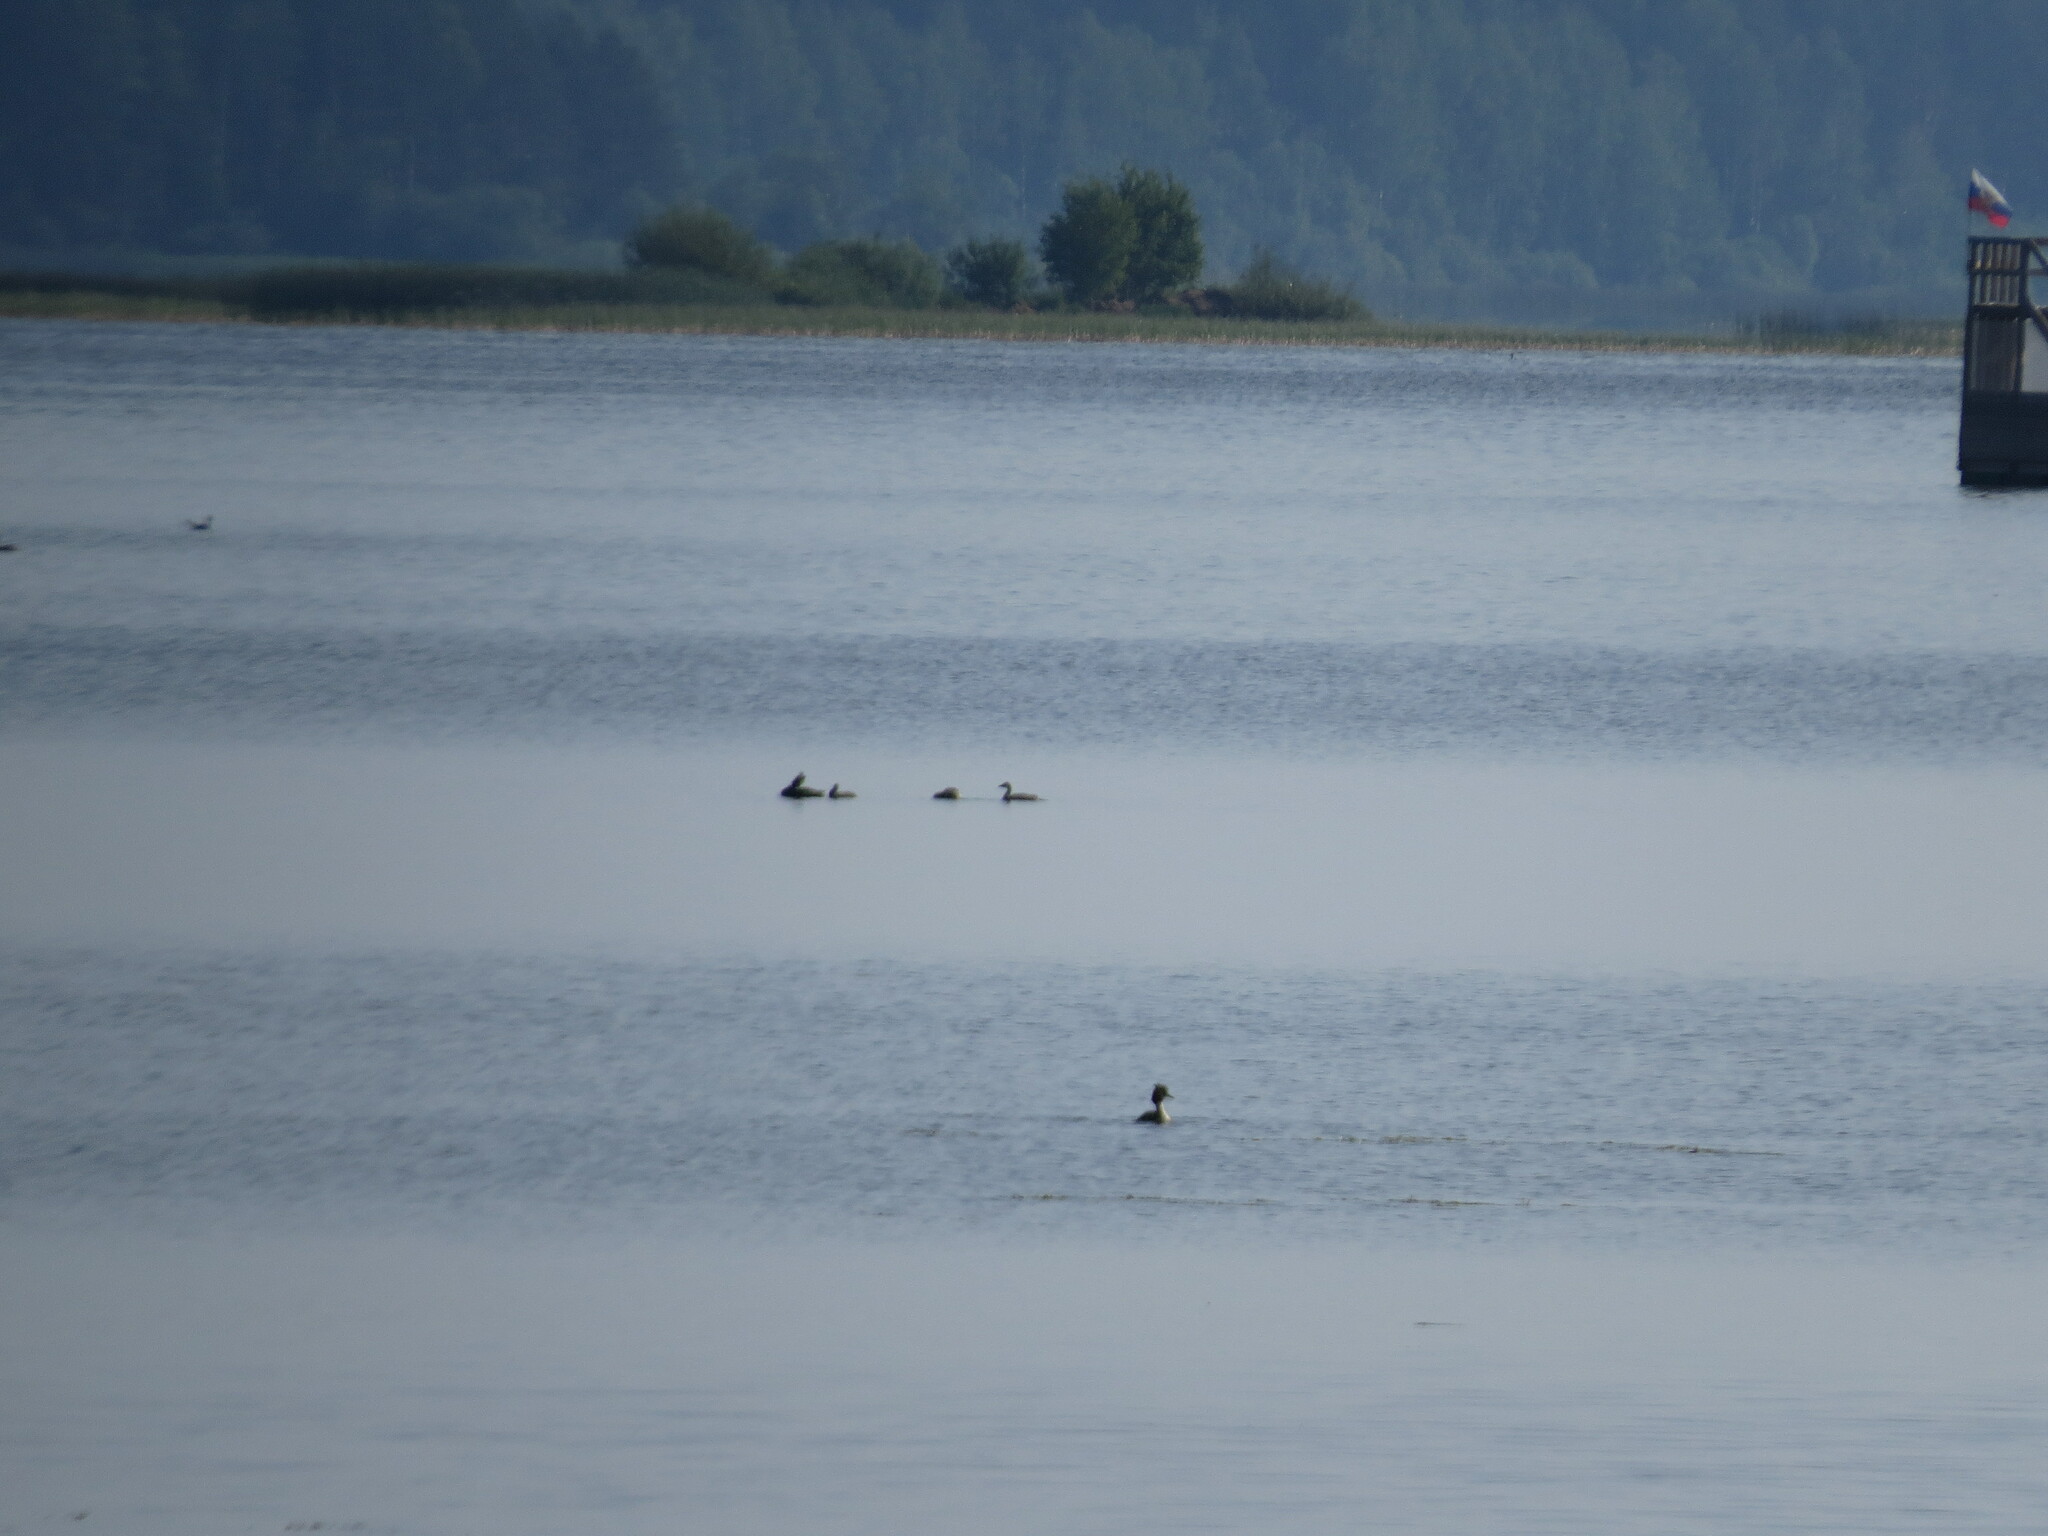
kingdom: Animalia
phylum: Chordata
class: Aves
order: Podicipediformes
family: Podicipedidae
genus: Podiceps
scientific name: Podiceps cristatus
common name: Great crested grebe
